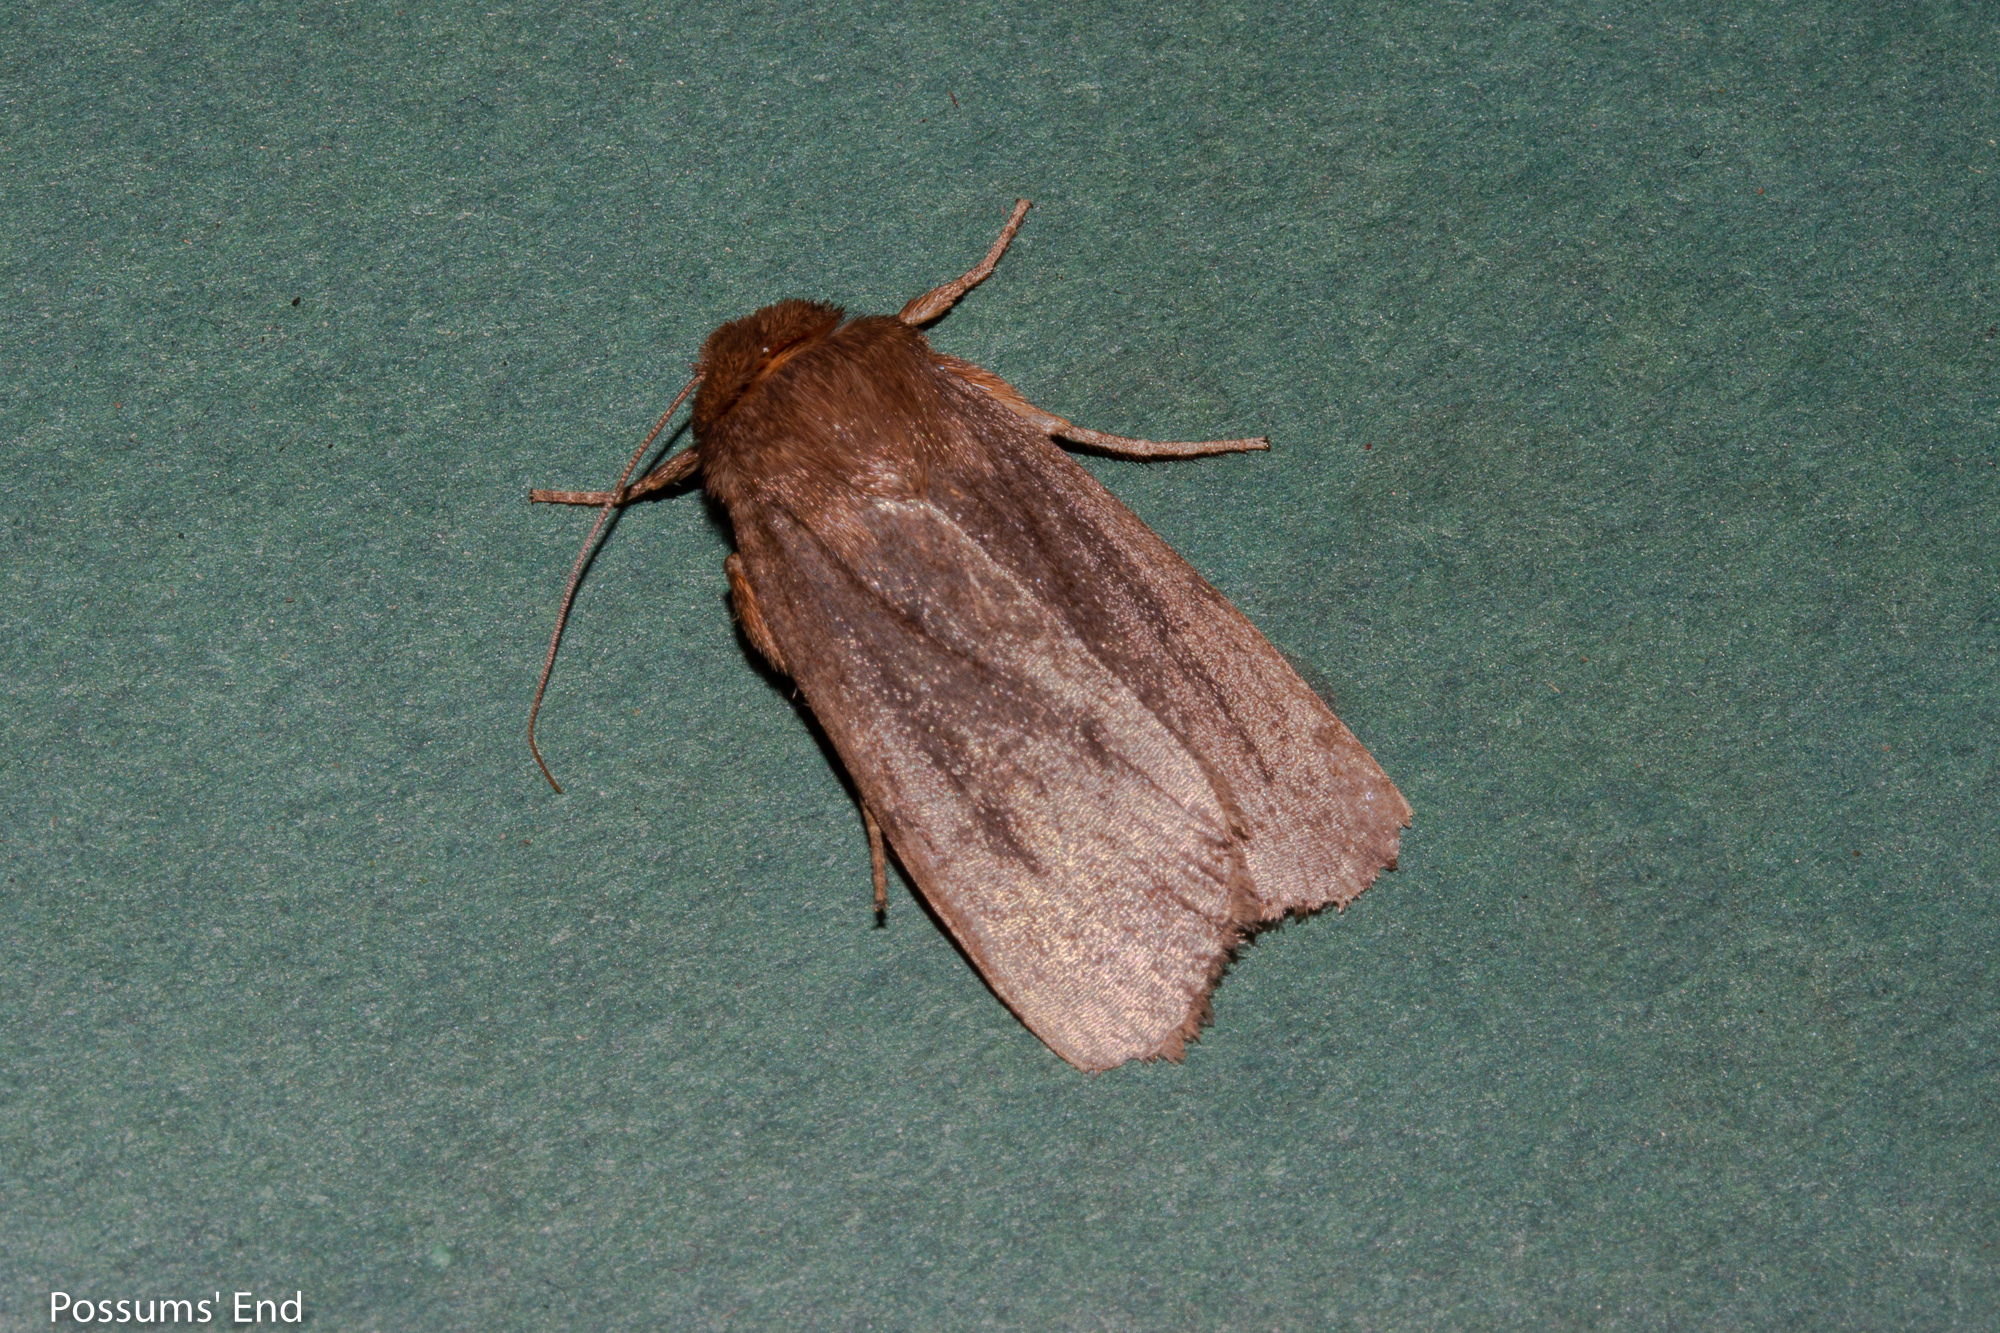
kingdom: Animalia
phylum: Arthropoda
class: Insecta
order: Lepidoptera
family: Noctuidae
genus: Bityla
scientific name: Bityla defigurata
